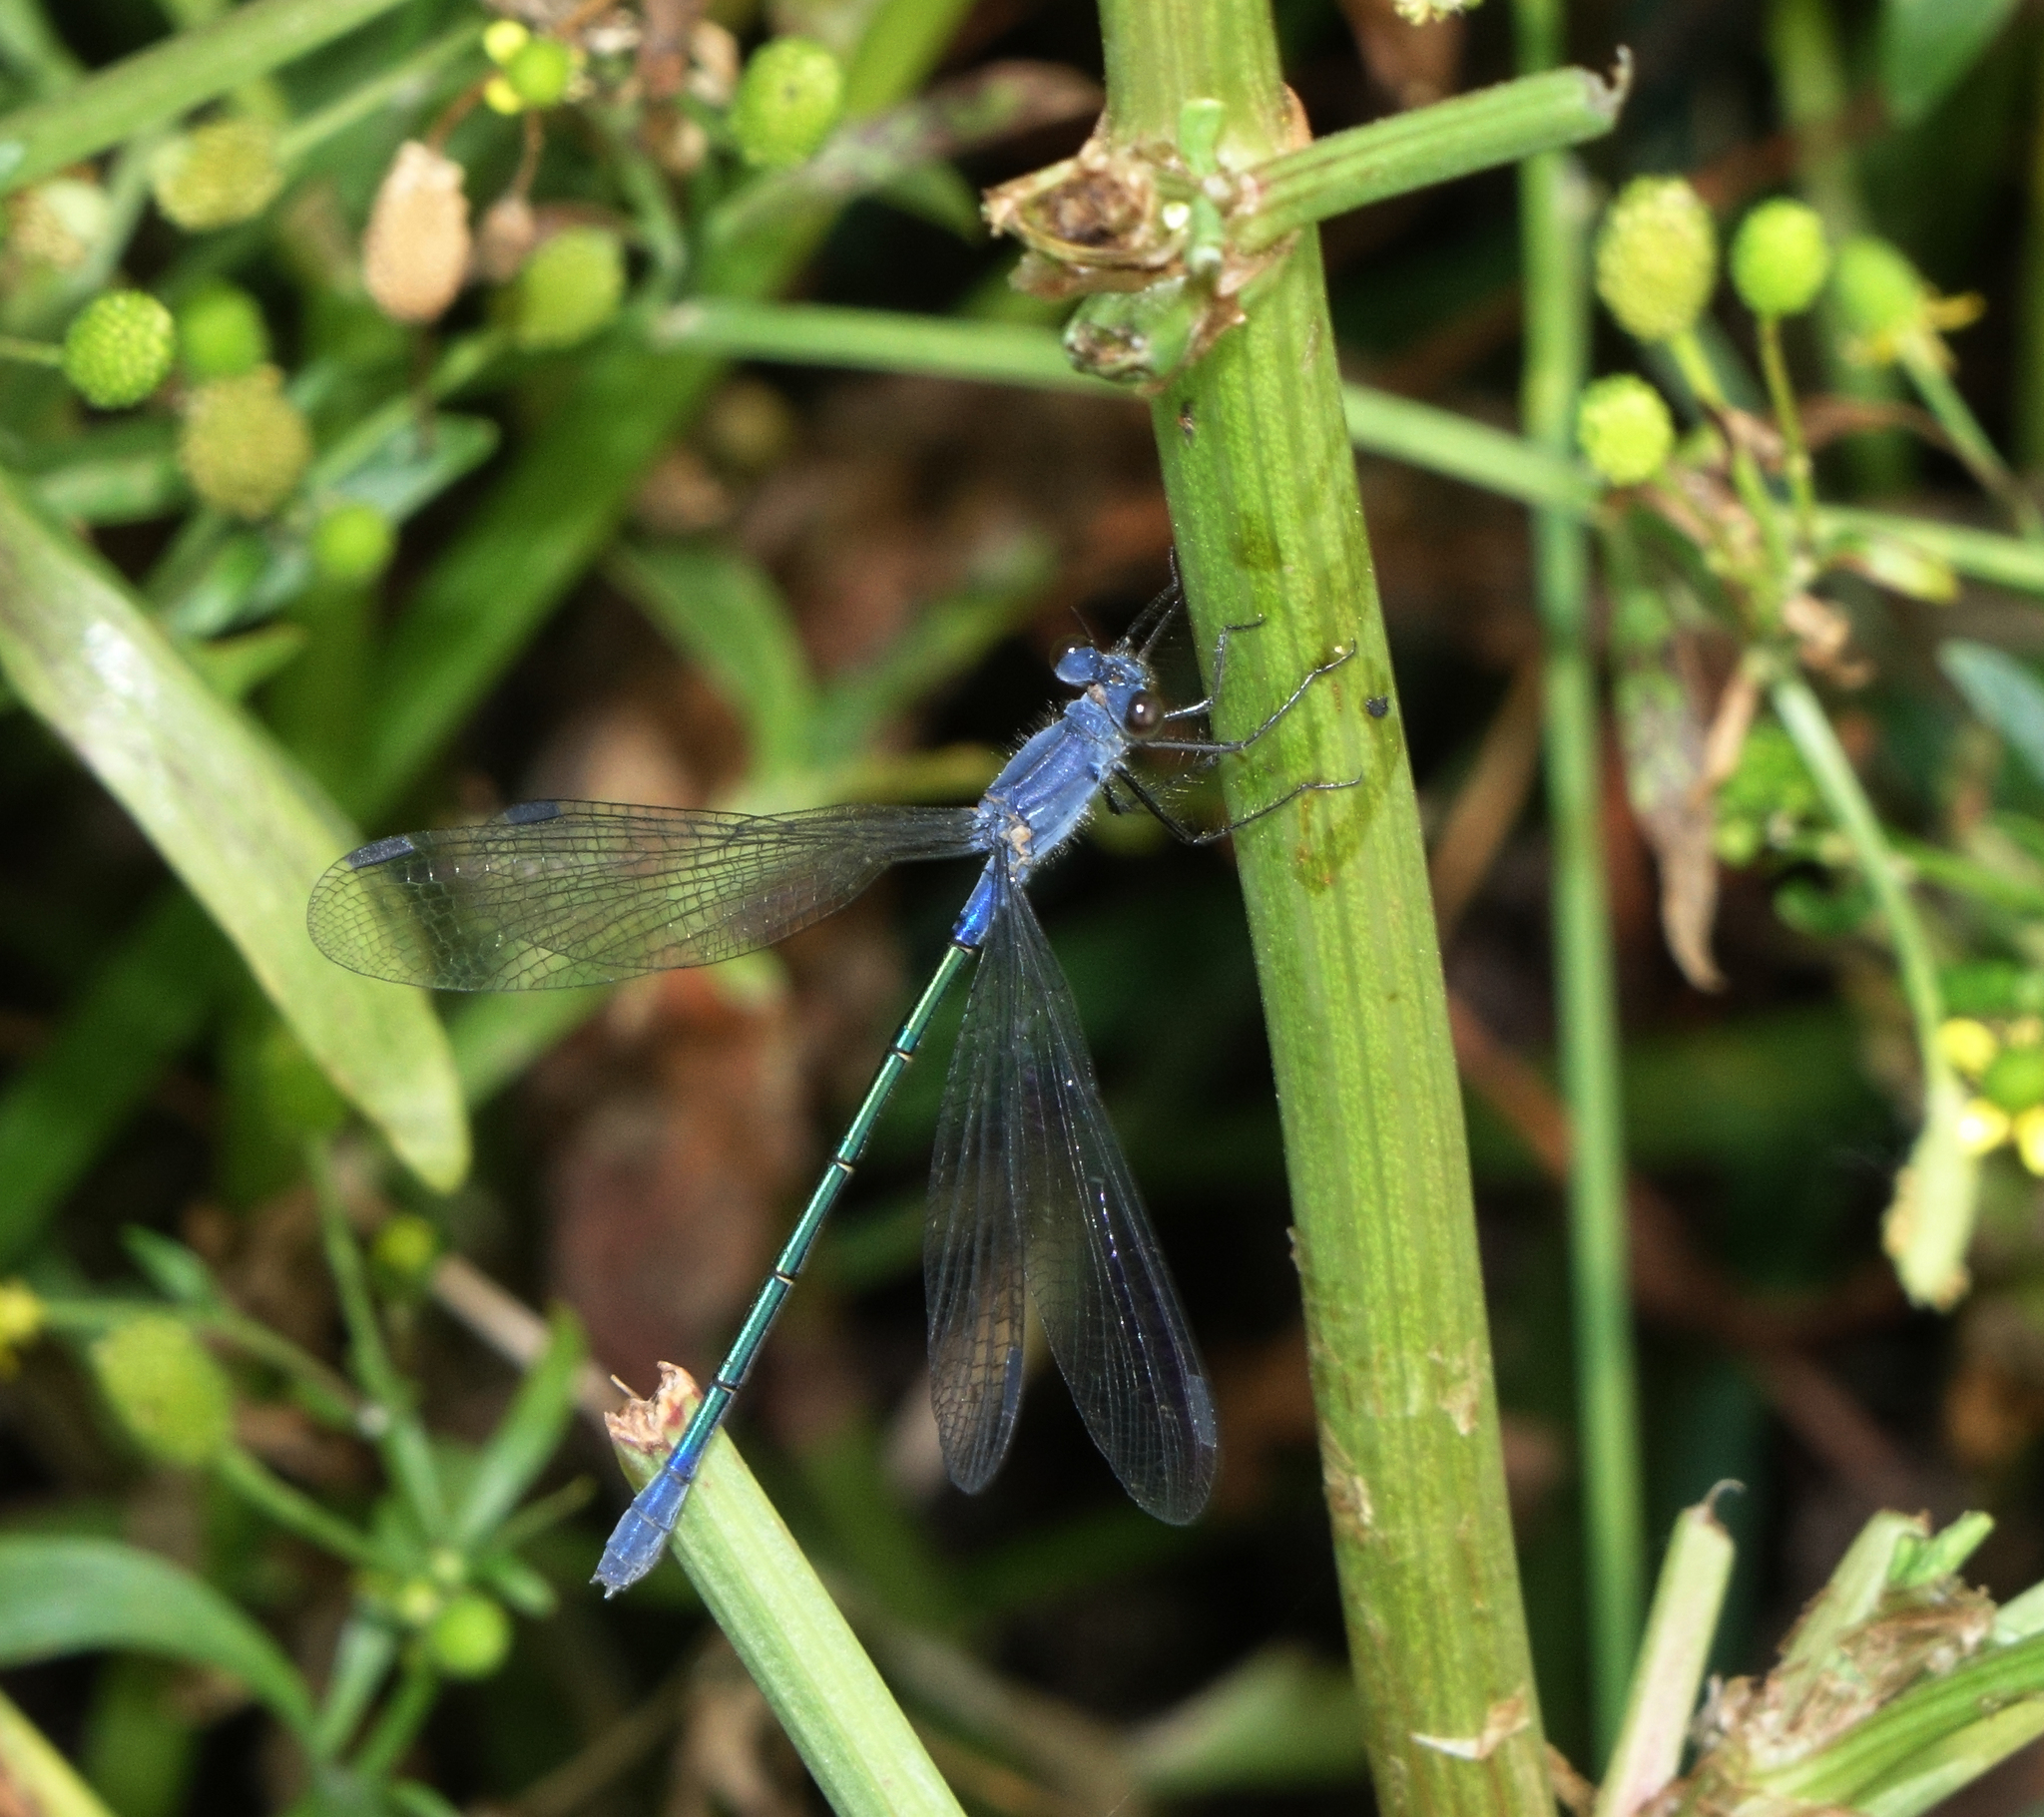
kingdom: Animalia
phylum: Arthropoda
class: Insecta
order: Odonata
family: Lestidae
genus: Lestes
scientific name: Lestes macrostigma
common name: Dark spreadwing
